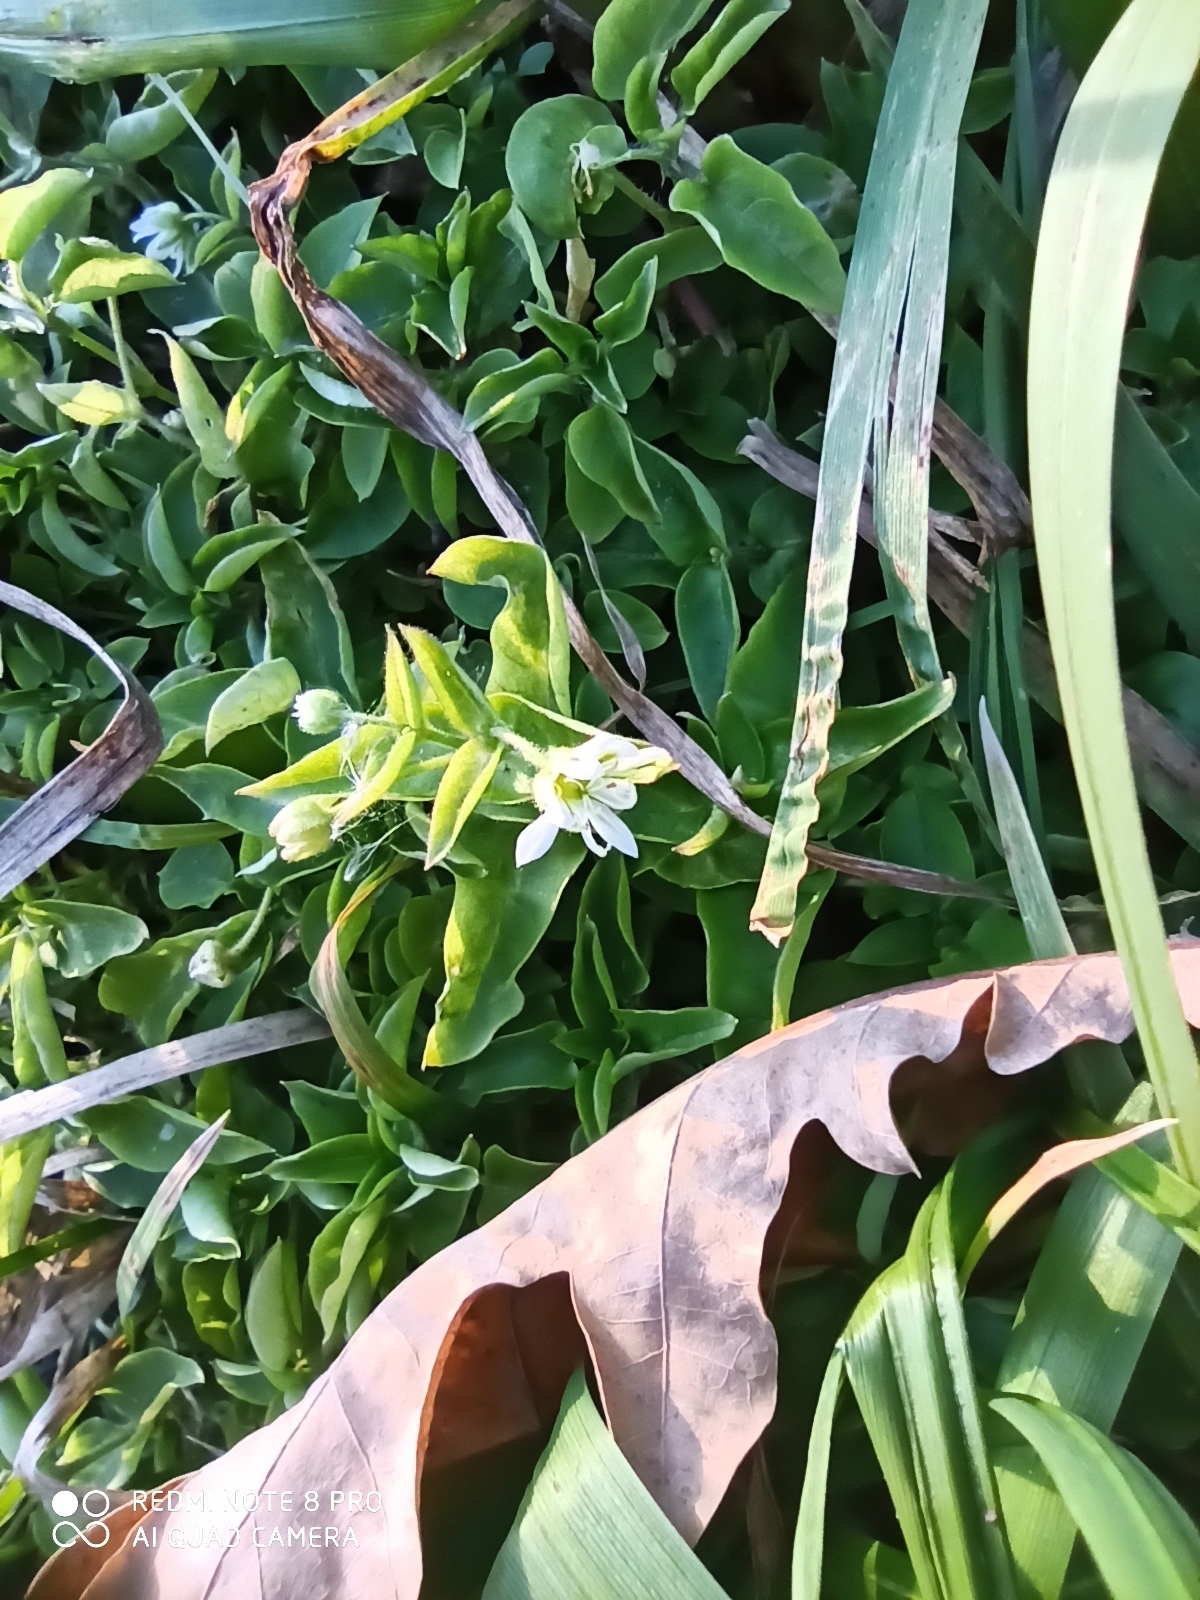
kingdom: Plantae
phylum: Tracheophyta
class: Magnoliopsida
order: Caryophyllales
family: Caryophyllaceae
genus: Stellaria
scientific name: Stellaria aquatica
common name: Water chickweed
